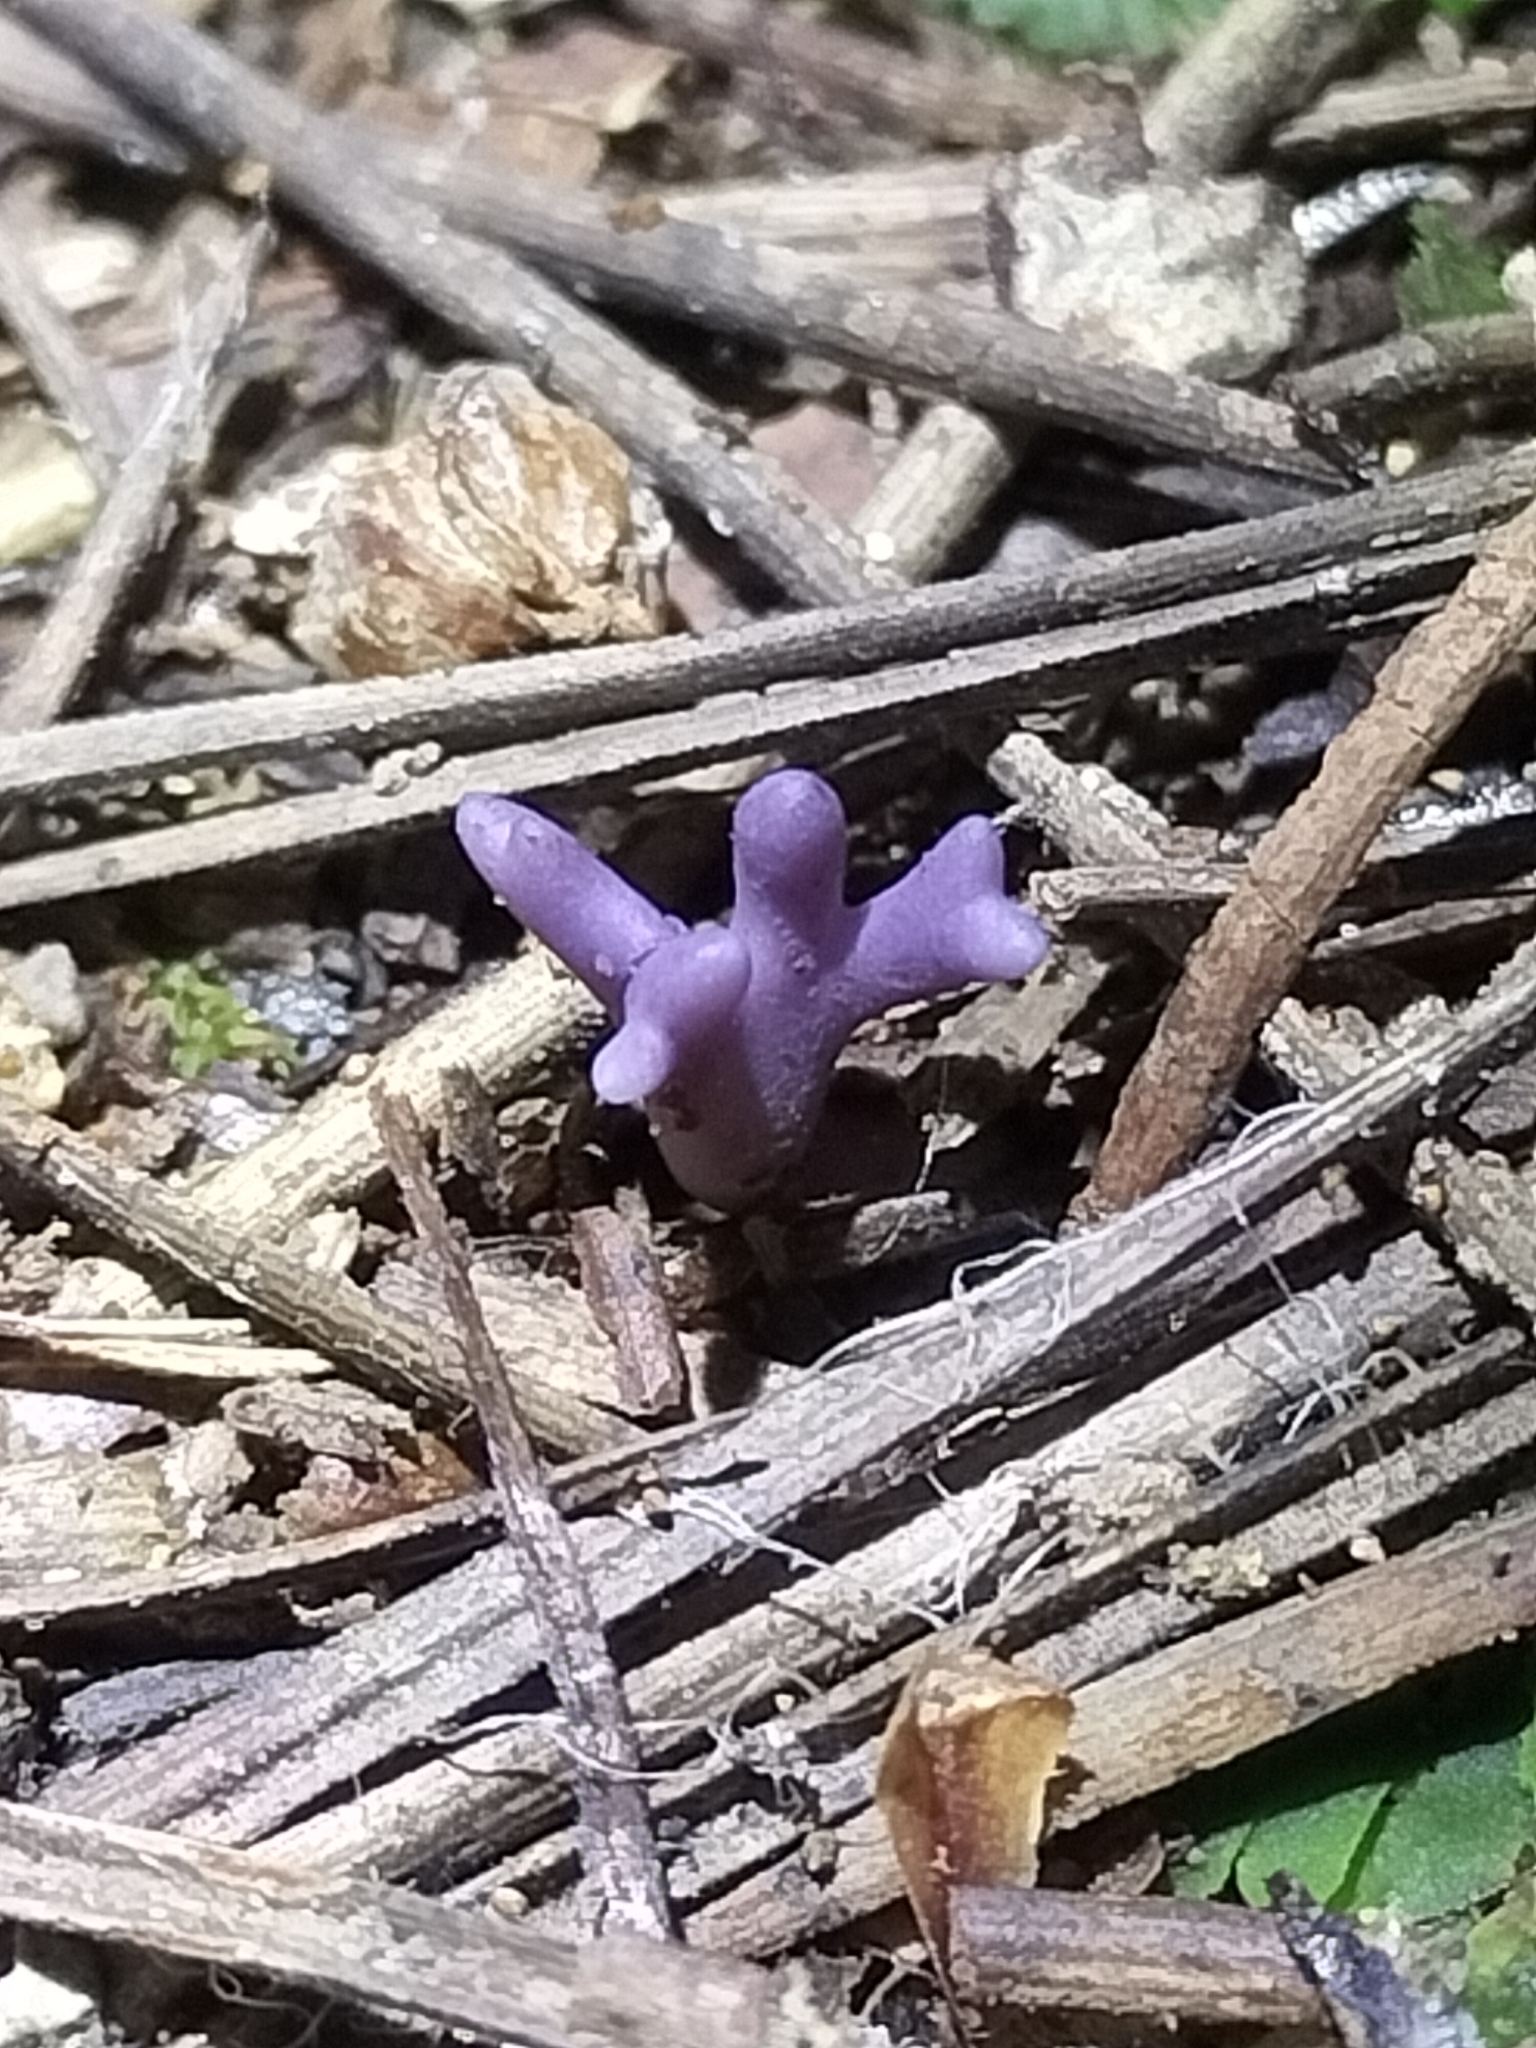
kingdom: Fungi
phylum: Basidiomycota
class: Agaricomycetes
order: Agaricales
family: Clavariaceae
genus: Ramariopsis
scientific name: Ramariopsis pulchella
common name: Lilac coral
